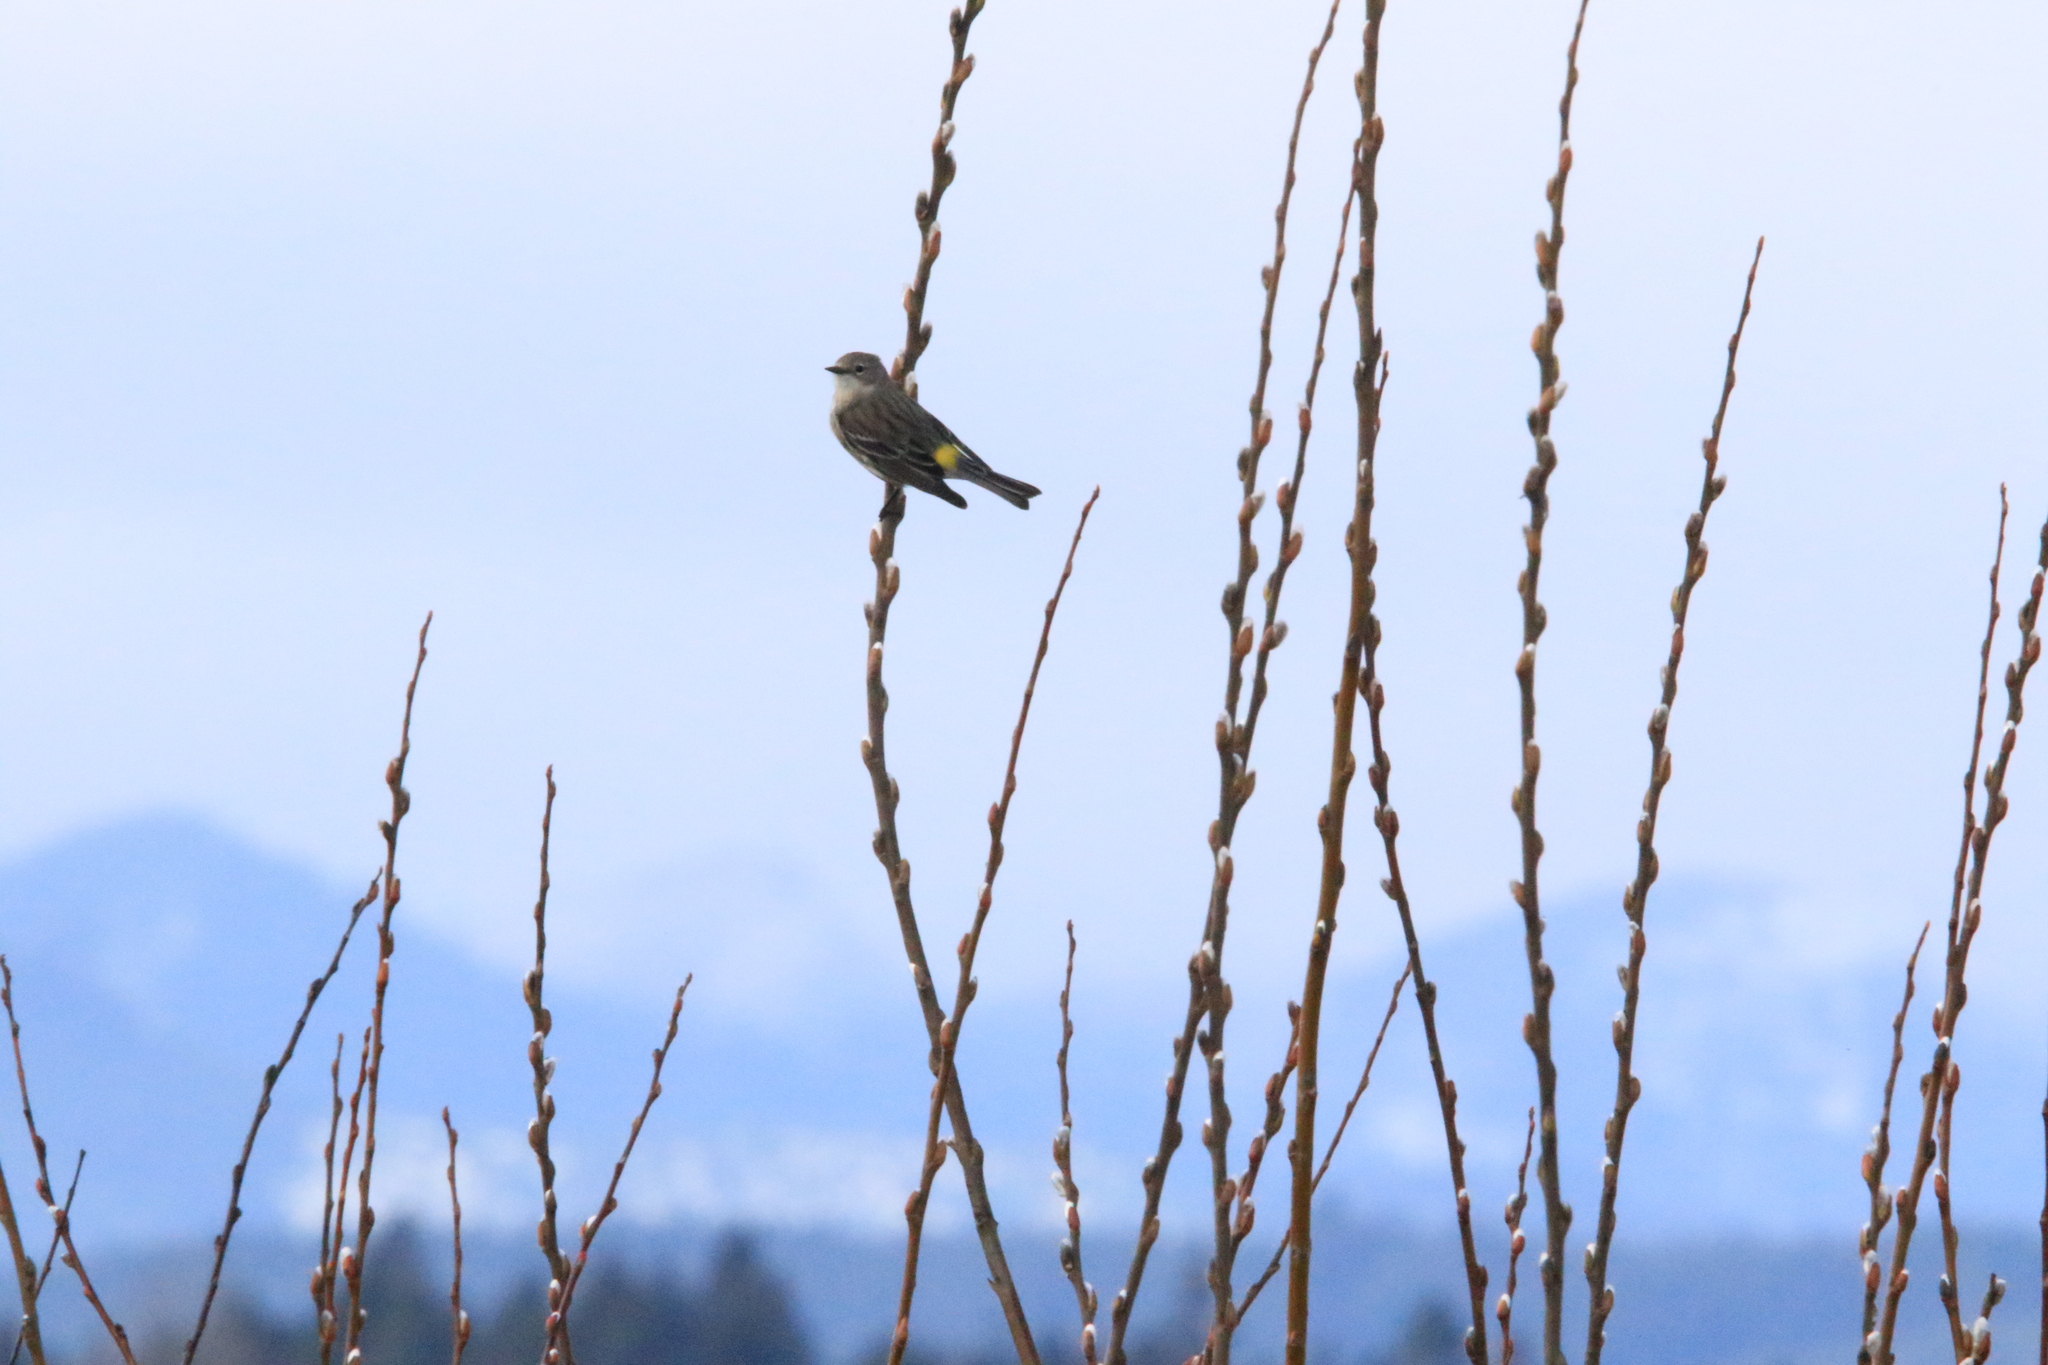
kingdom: Animalia
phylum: Chordata
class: Aves
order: Passeriformes
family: Parulidae
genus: Setophaga
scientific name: Setophaga coronata
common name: Myrtle warbler
